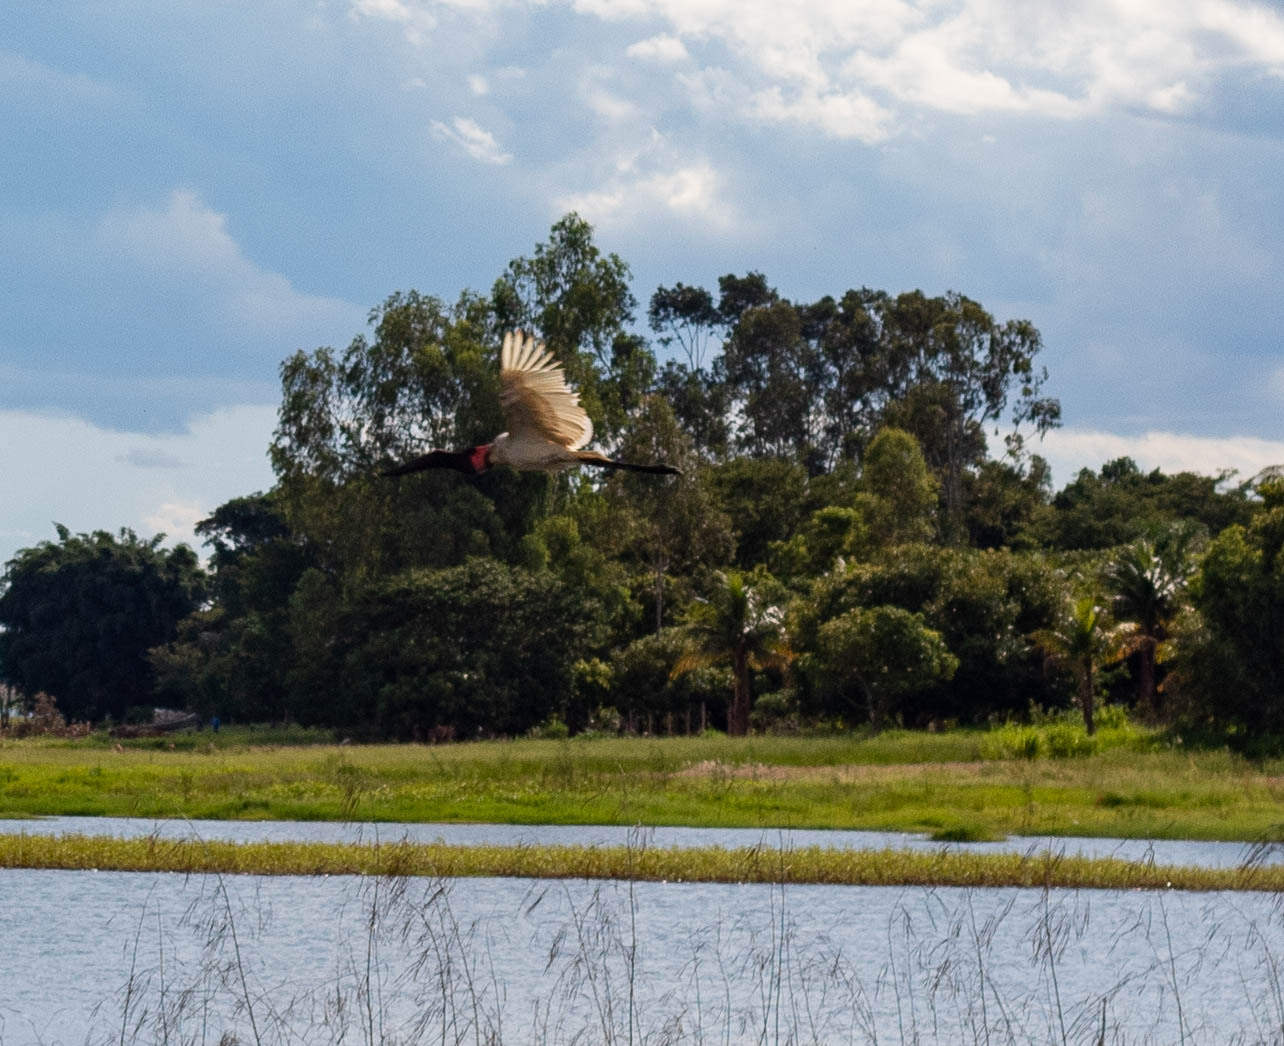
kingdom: Animalia
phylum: Chordata
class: Aves
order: Ciconiiformes
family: Ciconiidae
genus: Jabiru
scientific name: Jabiru mycteria
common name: Jabiru
